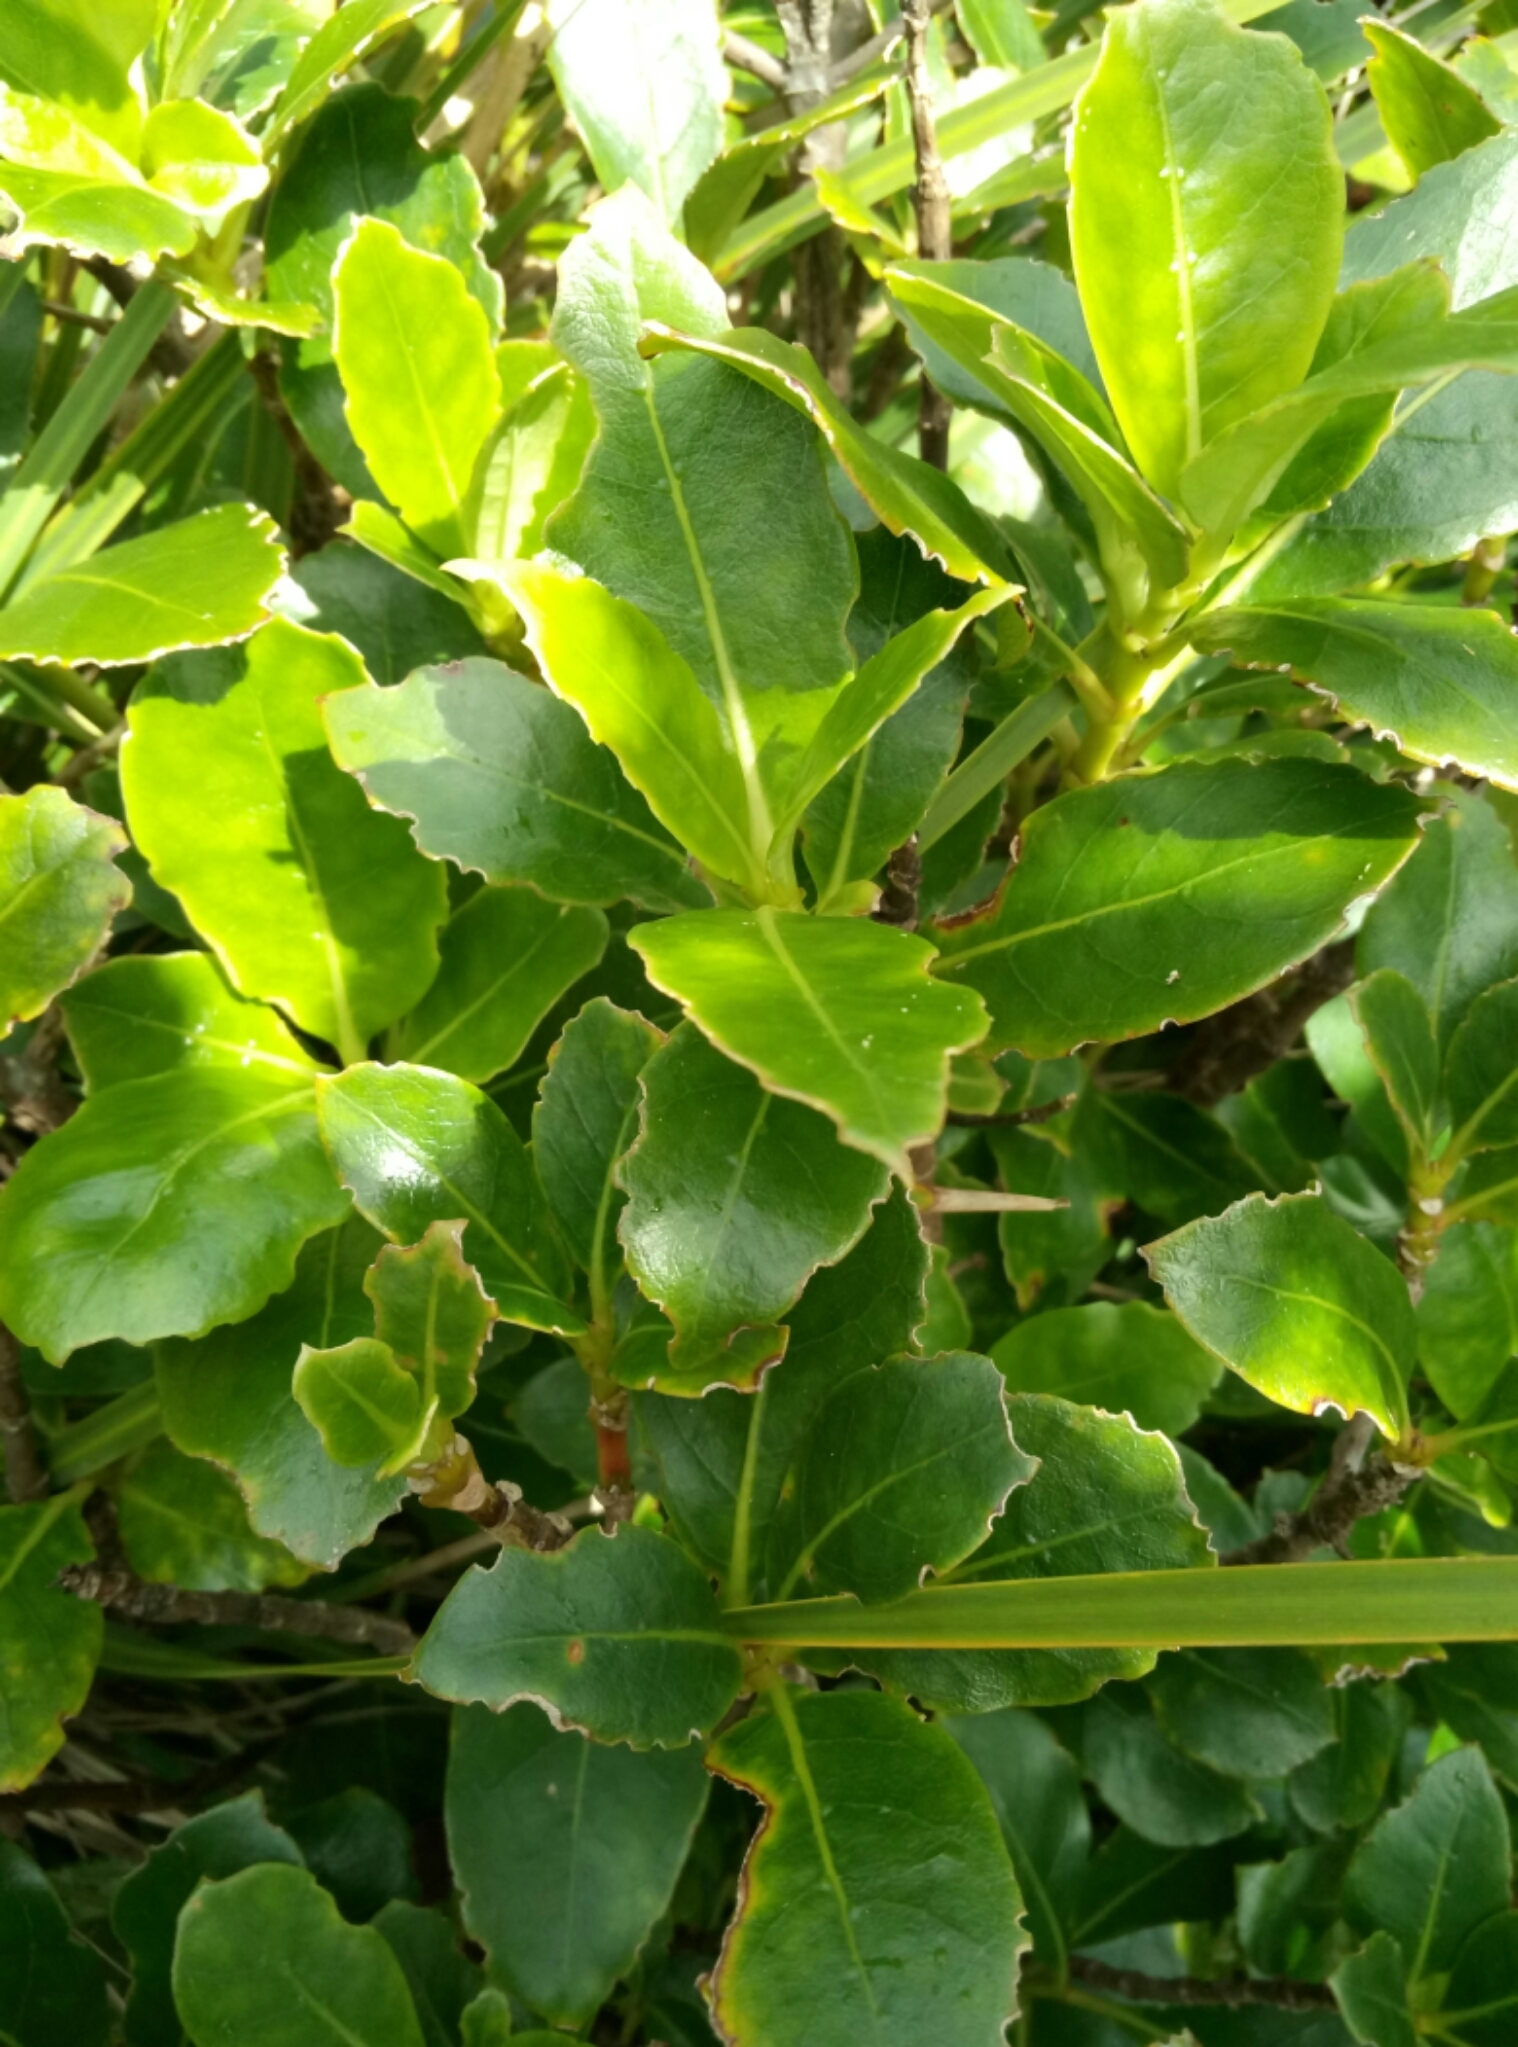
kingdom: Plantae
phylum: Tracheophyta
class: Magnoliopsida
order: Gentianales
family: Rubiaceae
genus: Coprosma
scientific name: Coprosma lucida
